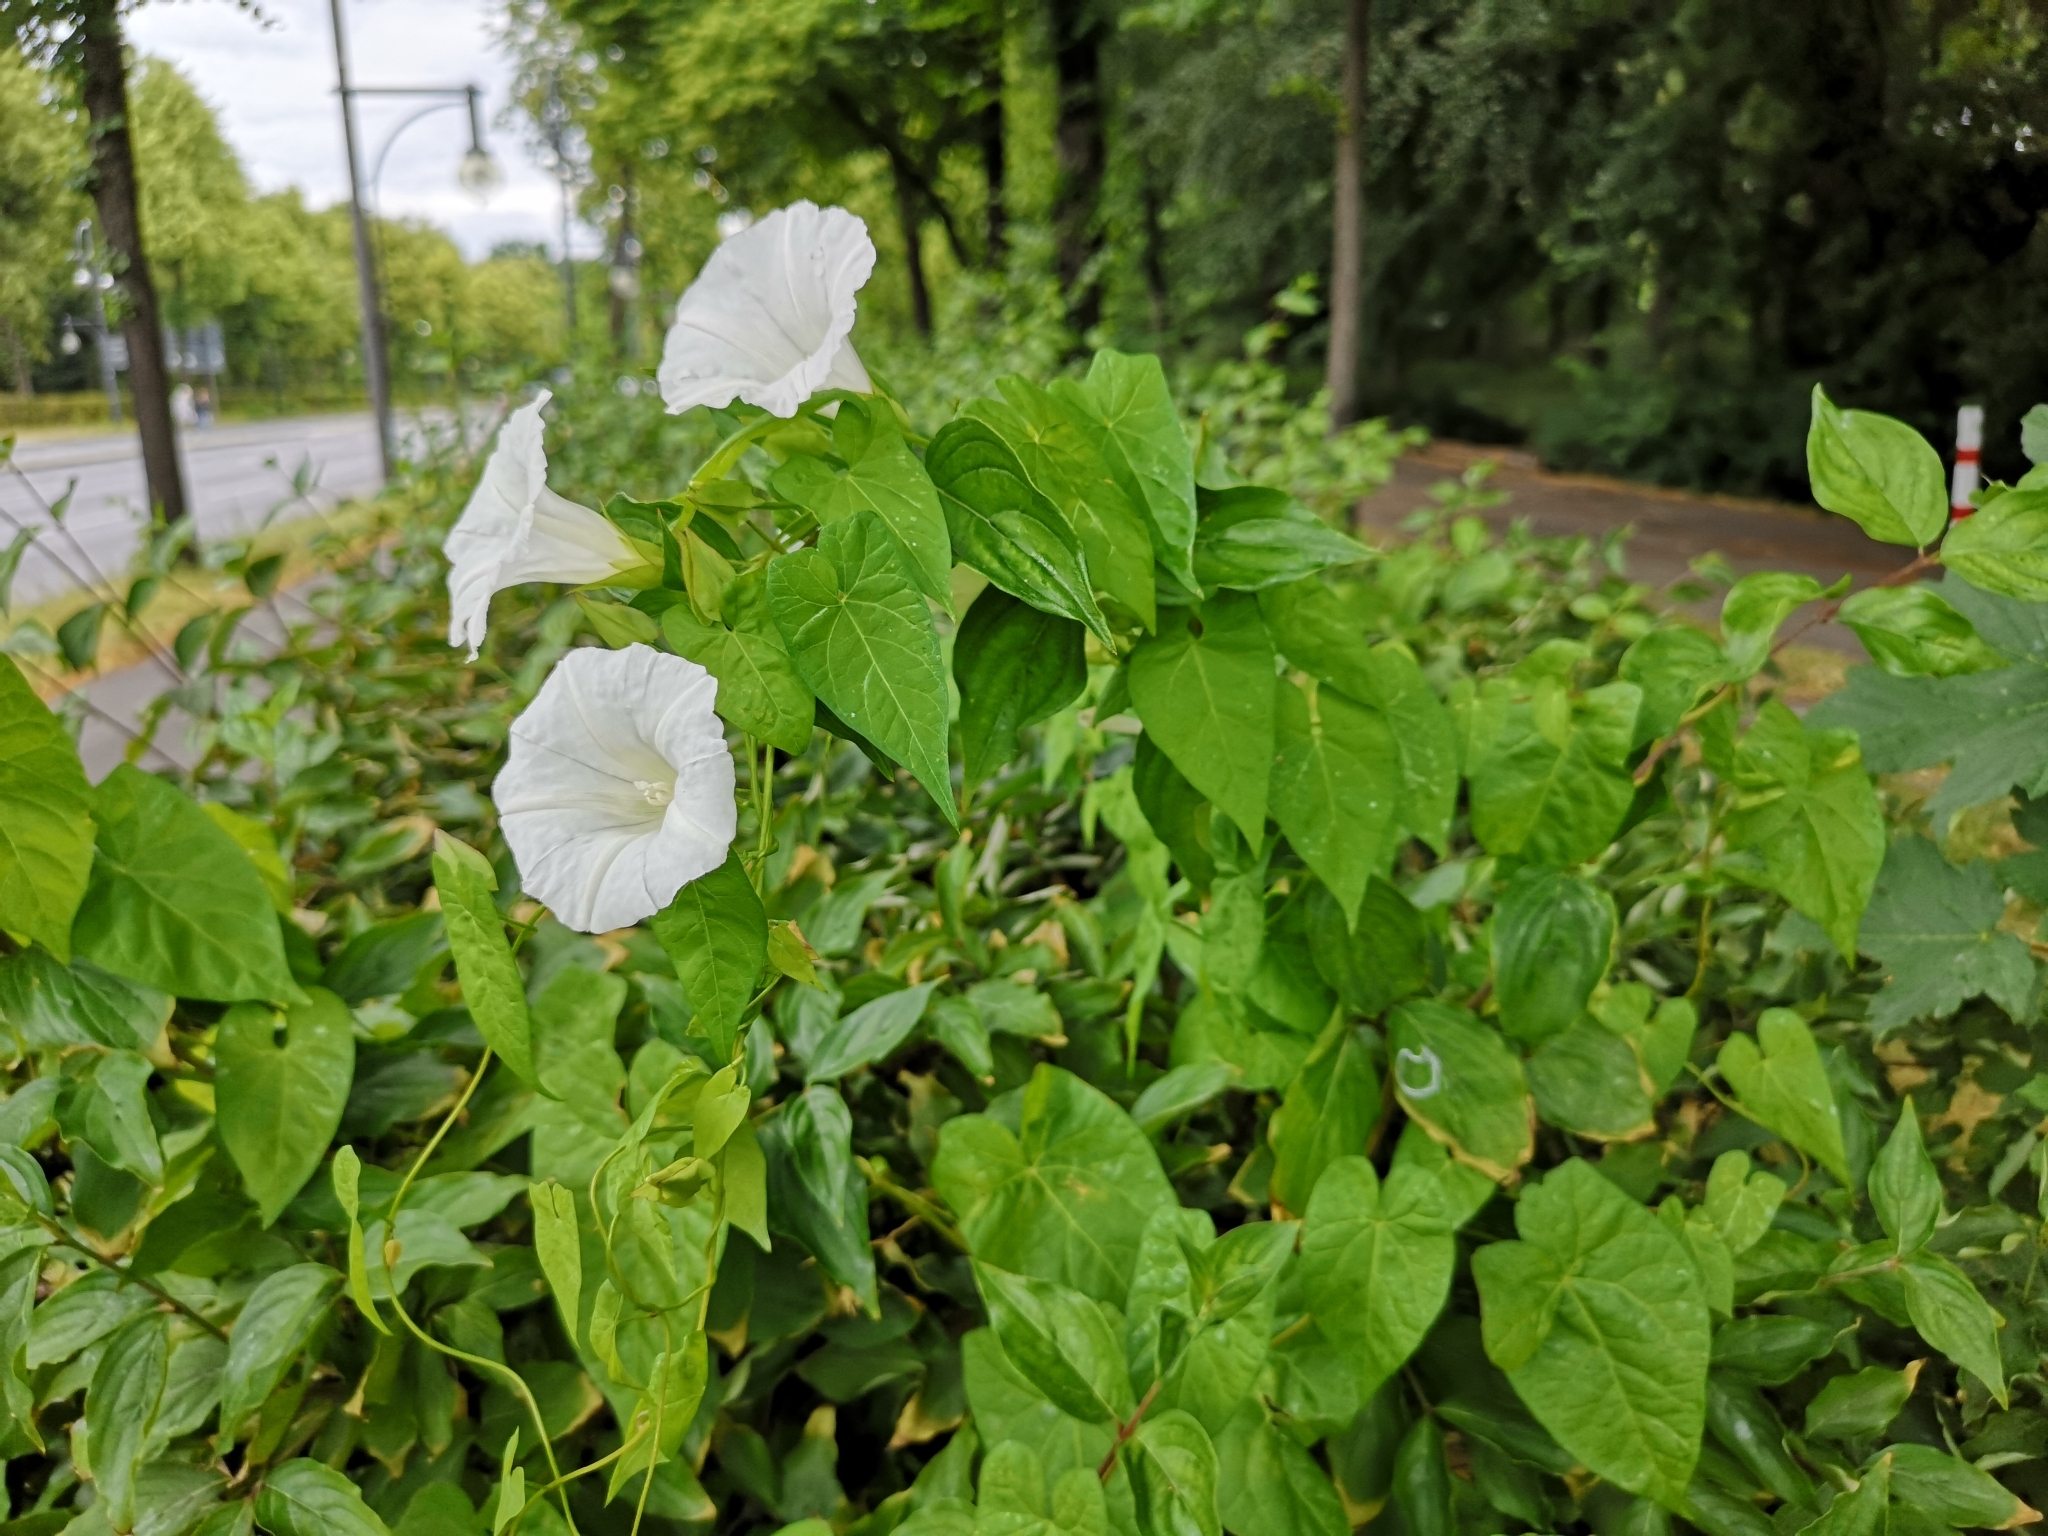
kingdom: Plantae
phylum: Tracheophyta
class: Magnoliopsida
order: Solanales
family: Convolvulaceae
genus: Calystegia
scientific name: Calystegia sepium
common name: Hedge bindweed
